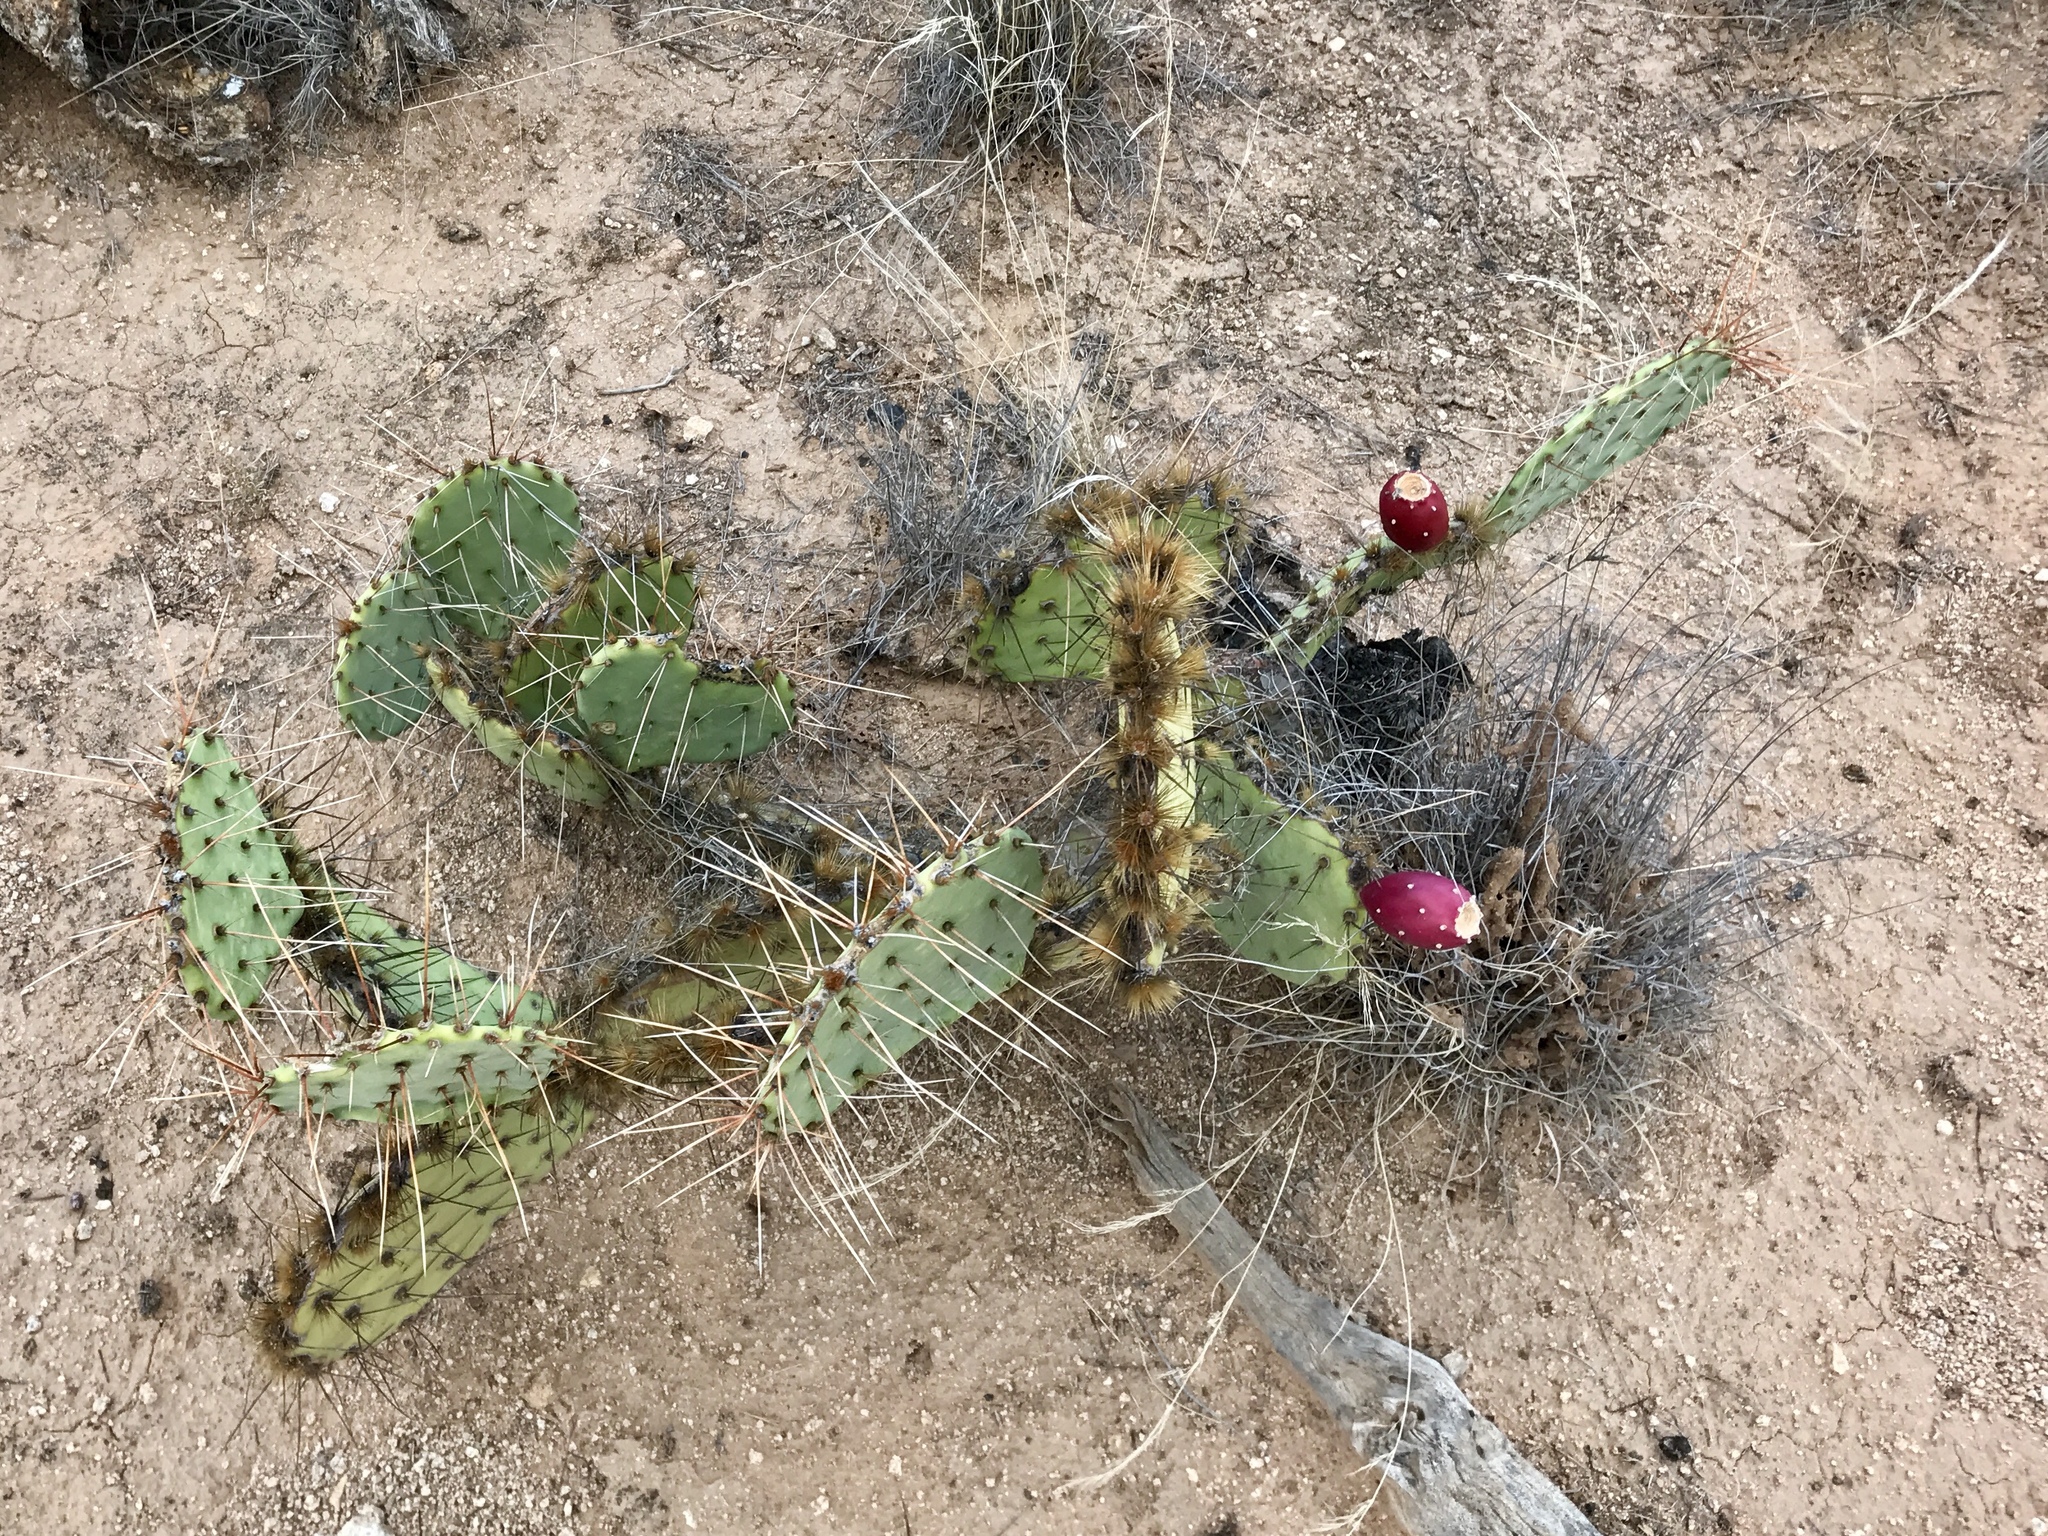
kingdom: Plantae
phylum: Tracheophyta
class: Magnoliopsida
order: Caryophyllales
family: Cactaceae
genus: Opuntia
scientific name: Opuntia phaeacantha
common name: New mexico prickly-pear
